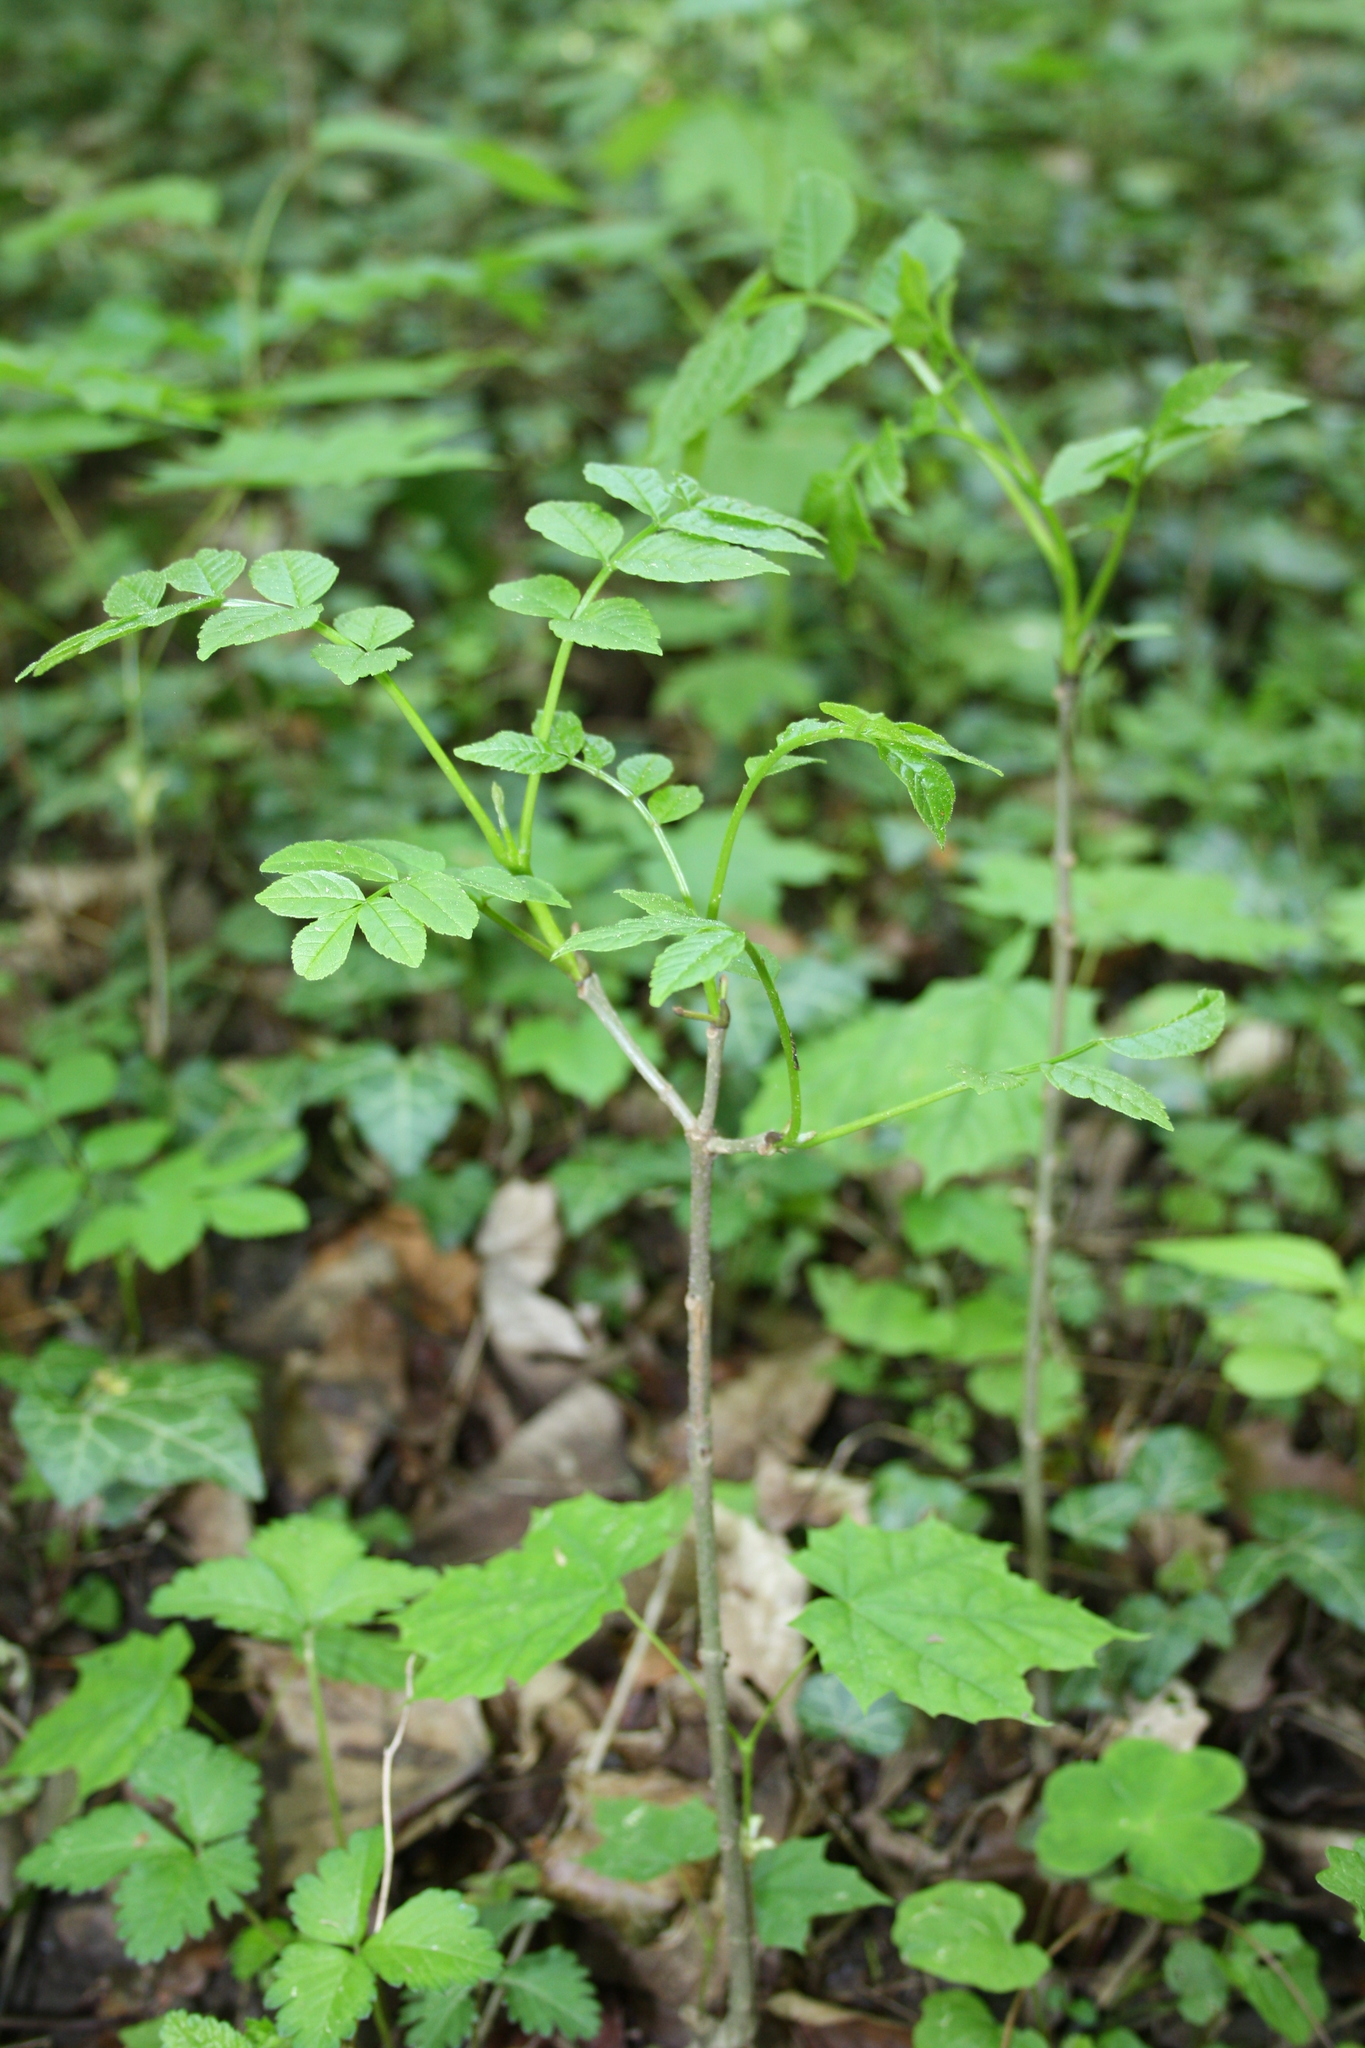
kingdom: Plantae
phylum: Tracheophyta
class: Magnoliopsida
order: Lamiales
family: Oleaceae
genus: Fraxinus
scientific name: Fraxinus excelsior
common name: European ash
